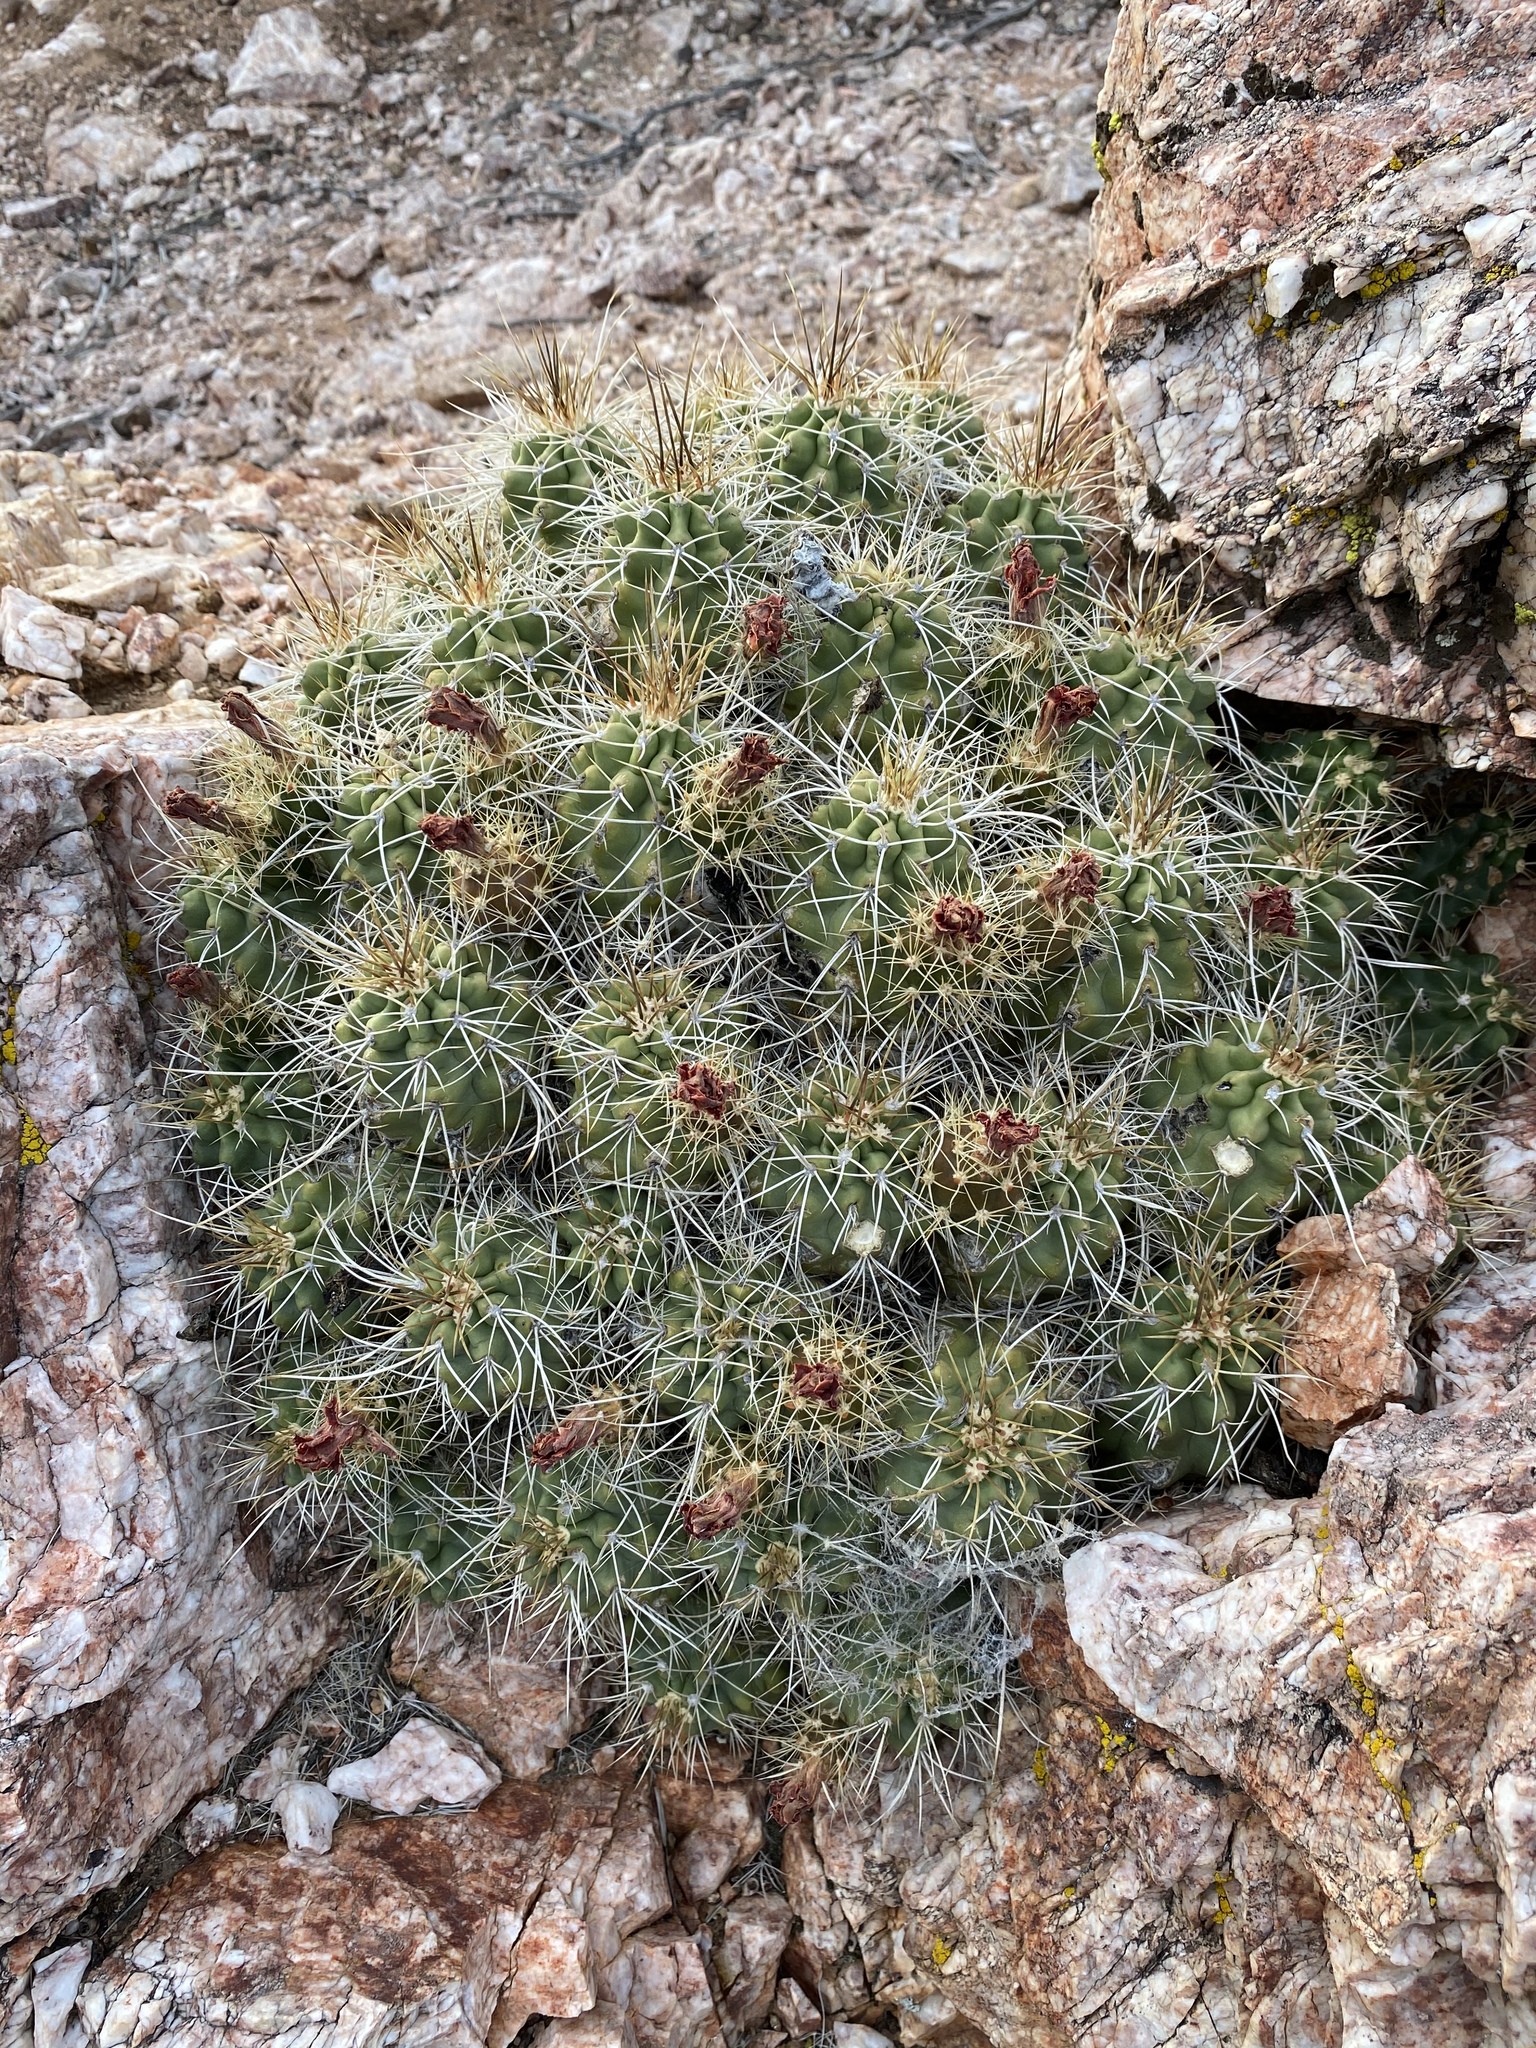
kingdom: Plantae
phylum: Tracheophyta
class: Magnoliopsida
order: Caryophyllales
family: Cactaceae
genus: Echinocereus
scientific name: Echinocereus triglochidiatus
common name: Claretcup hedgehog
